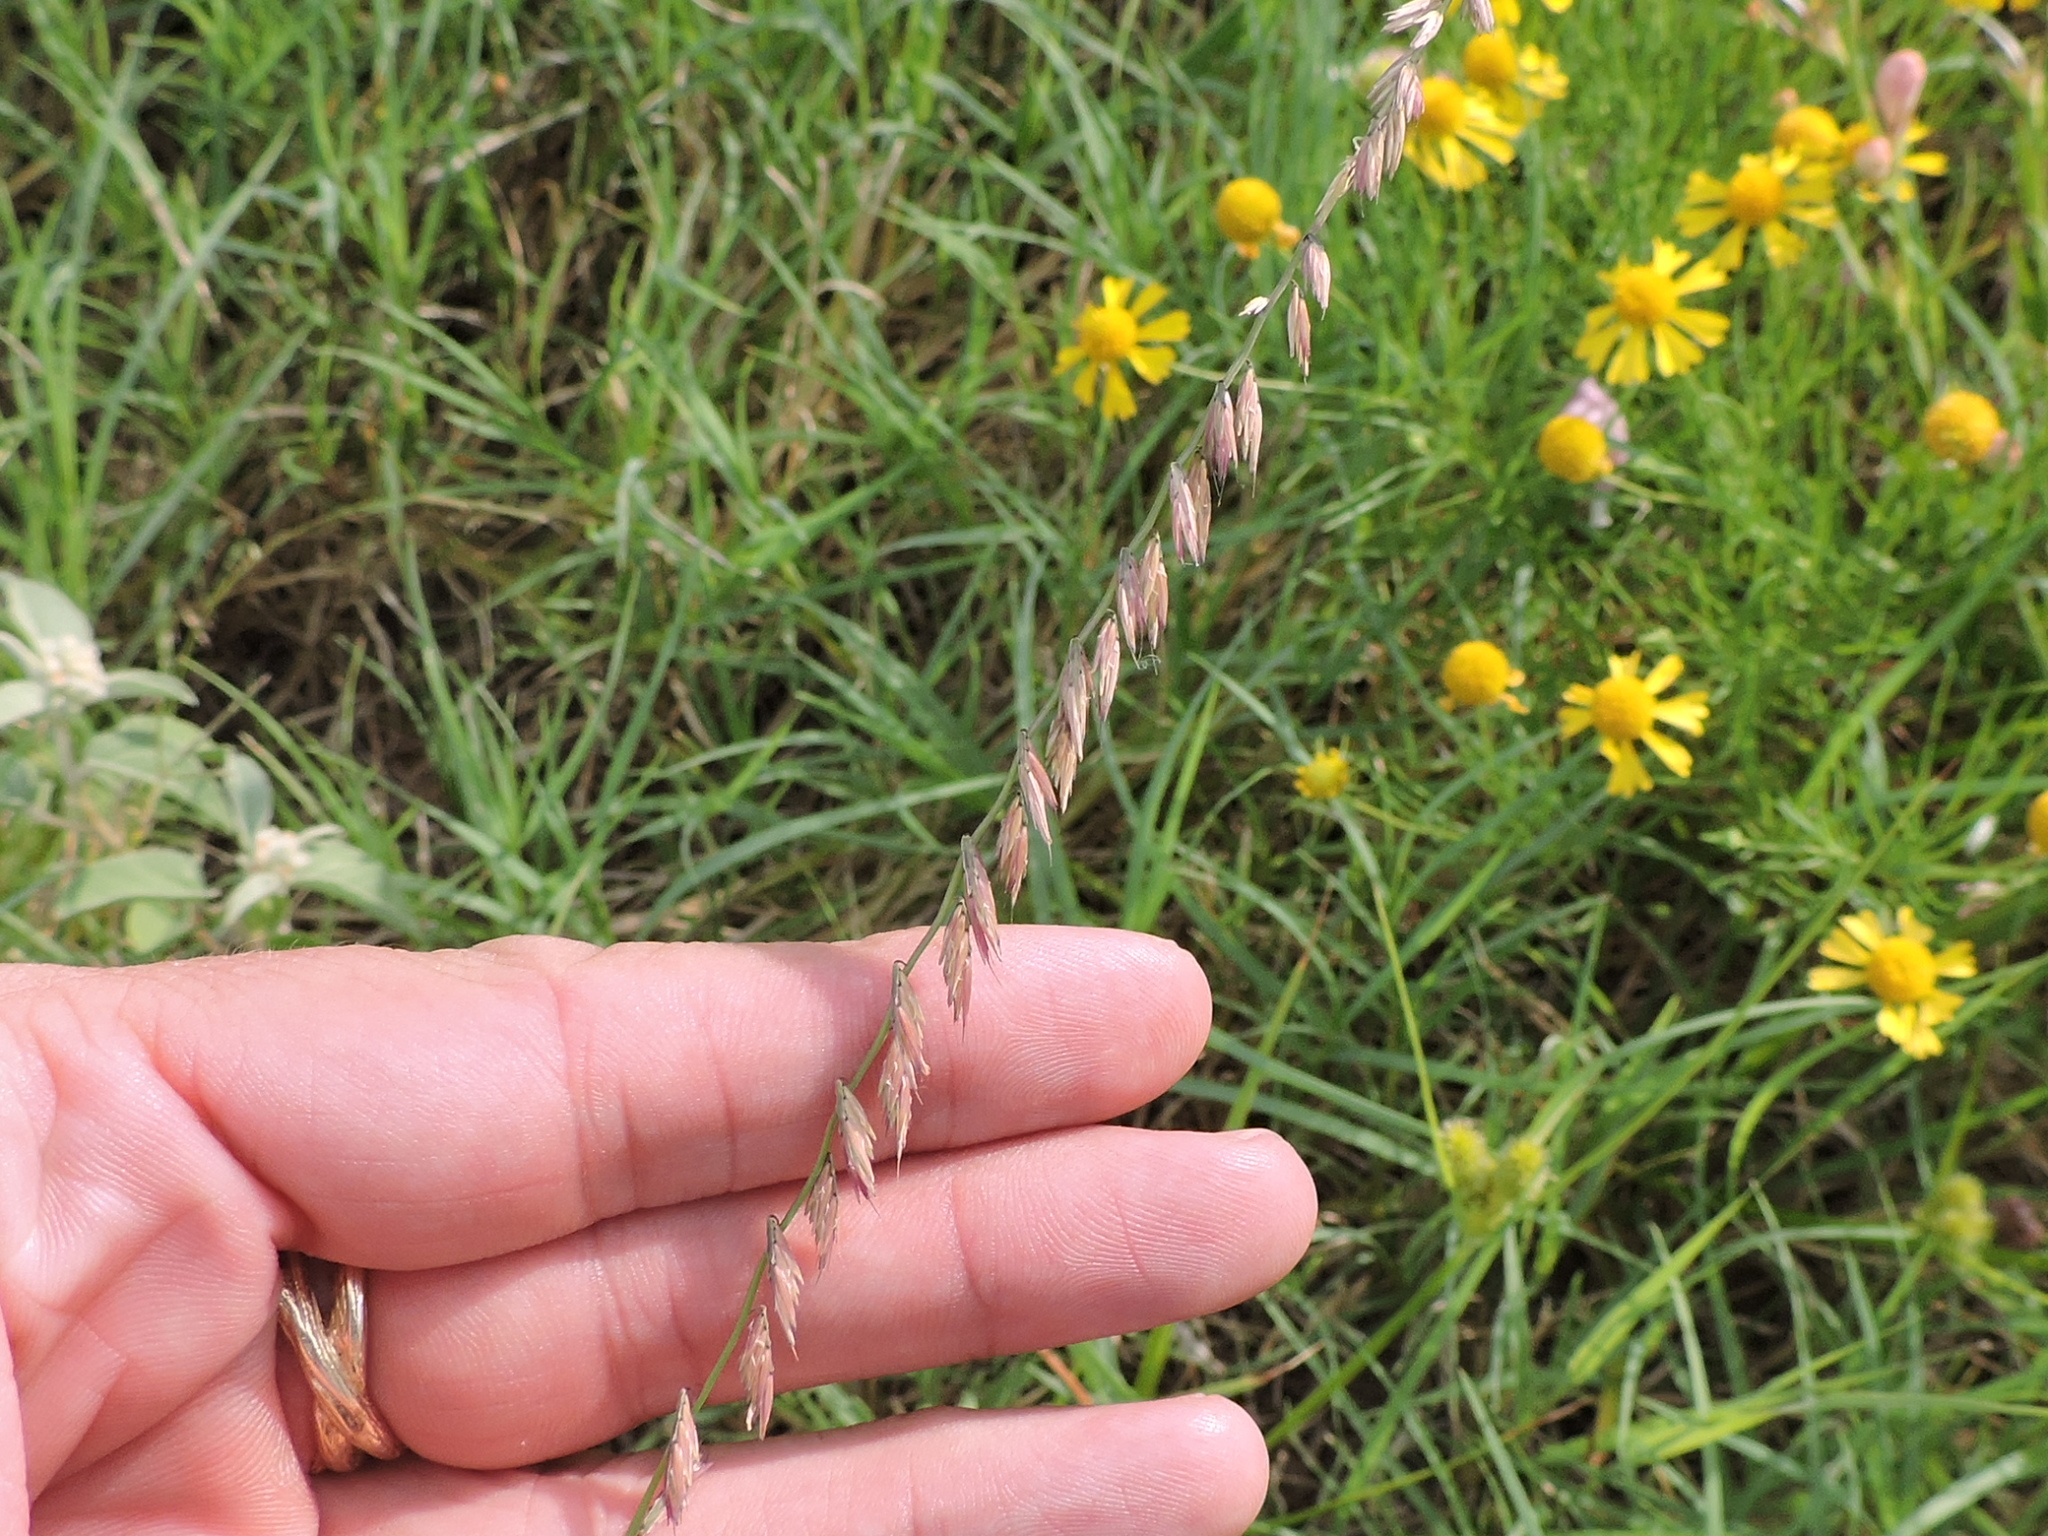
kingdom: Plantae
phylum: Tracheophyta
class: Liliopsida
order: Poales
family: Poaceae
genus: Bouteloua
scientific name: Bouteloua curtipendula
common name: Side-oats grama
